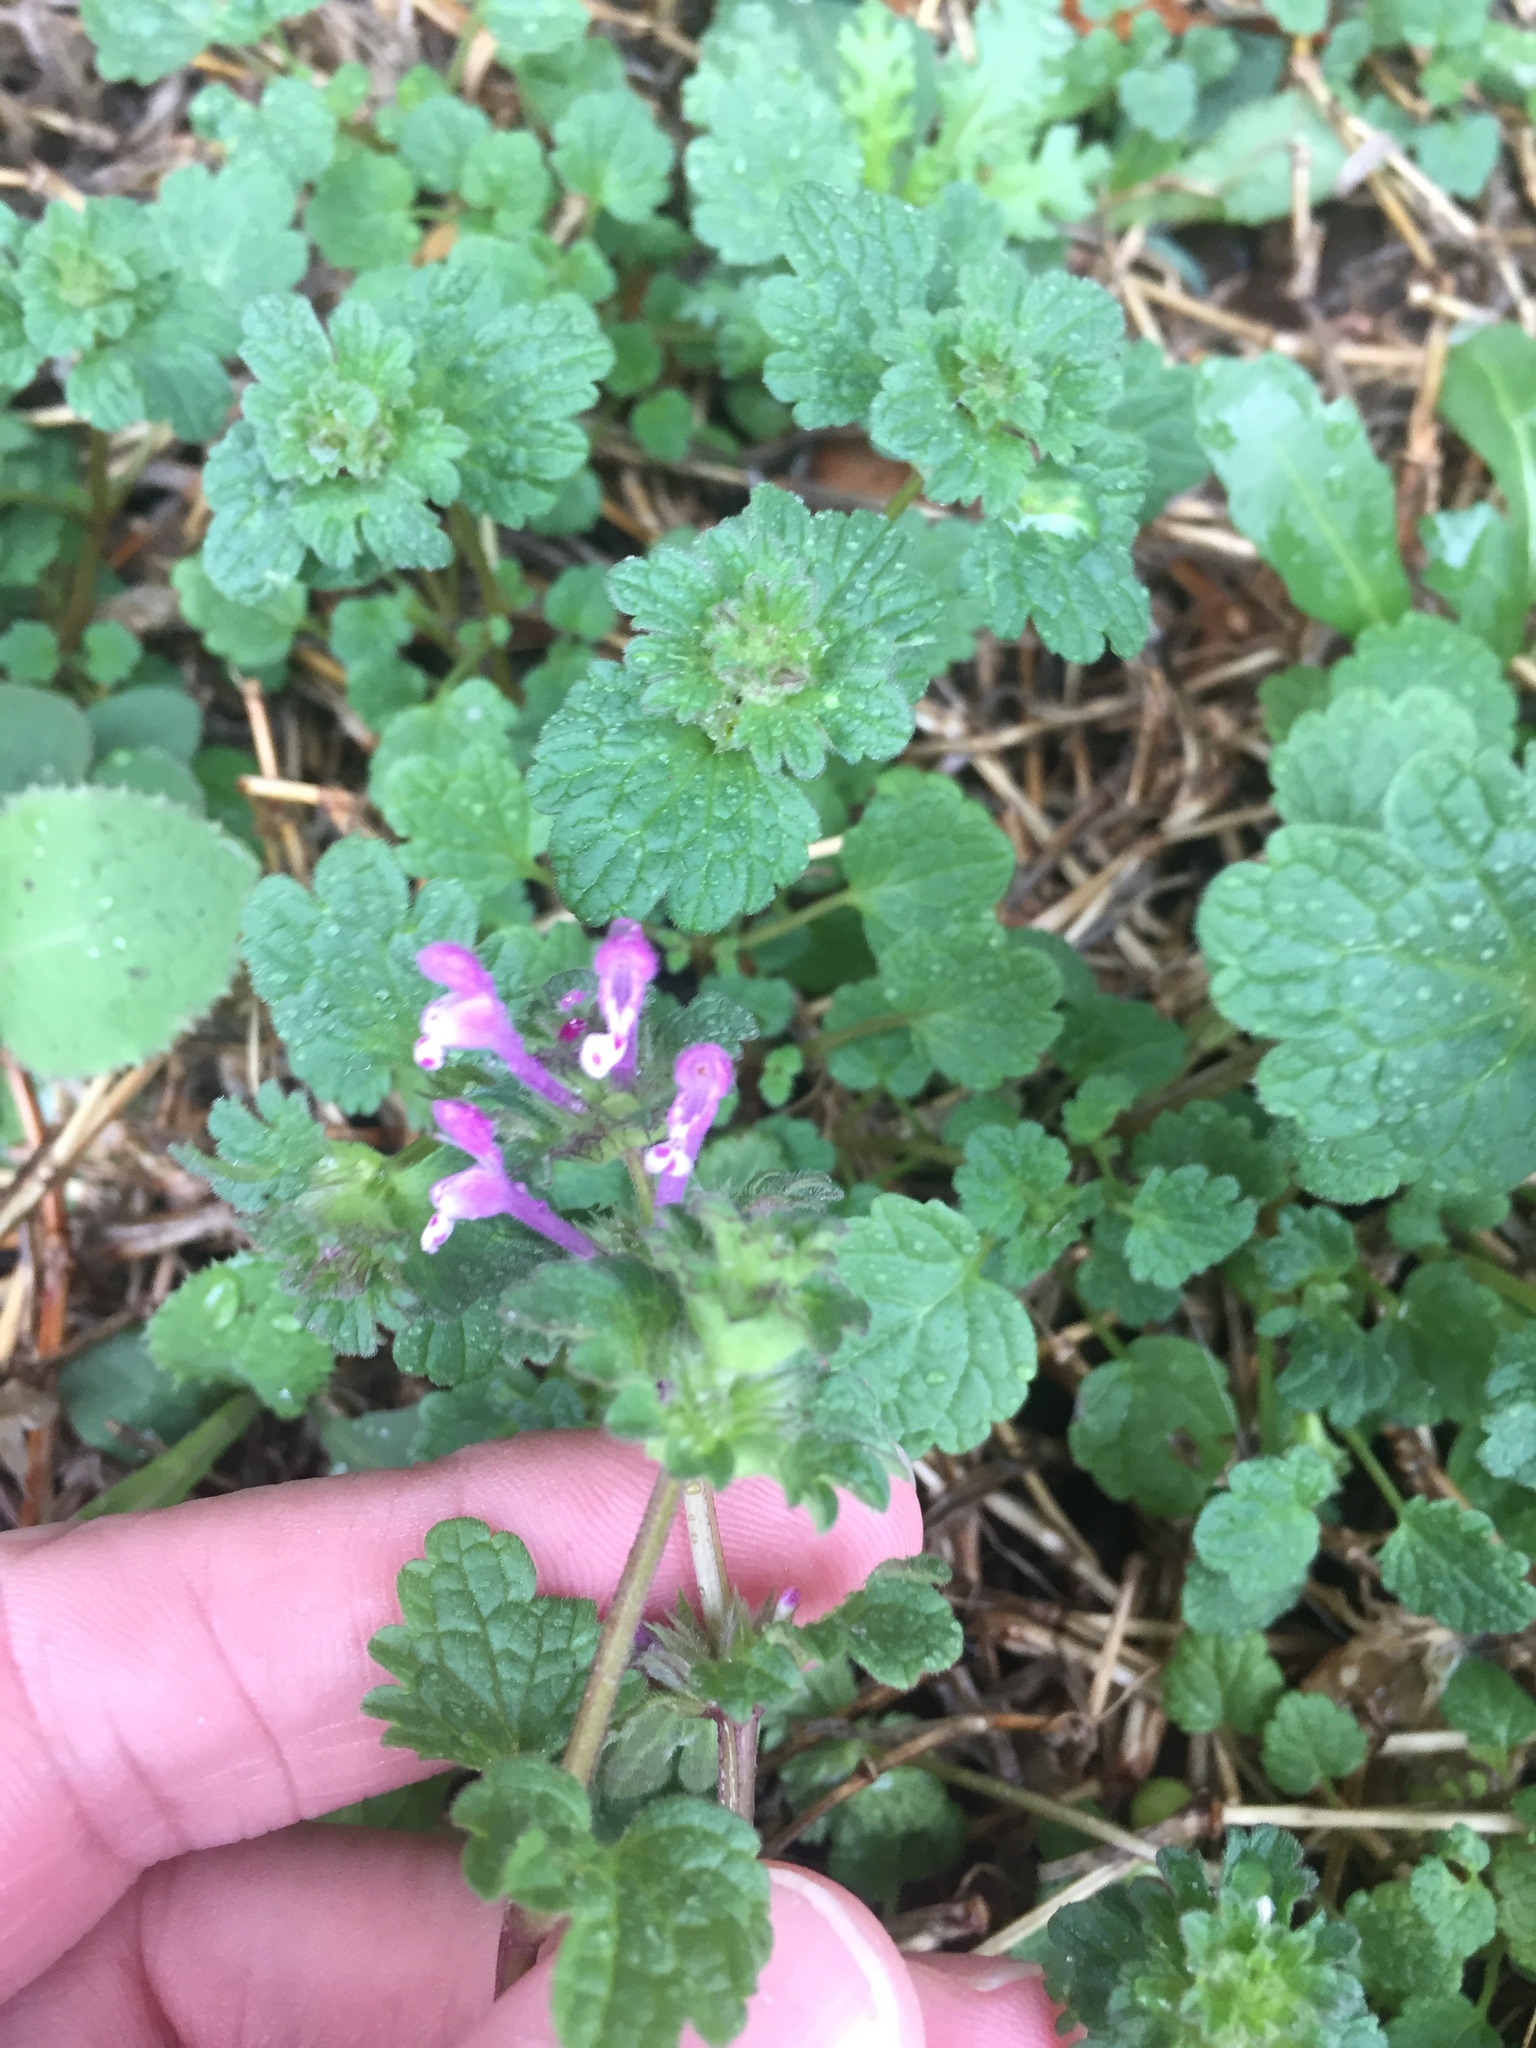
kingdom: Plantae
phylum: Tracheophyta
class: Magnoliopsida
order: Lamiales
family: Lamiaceae
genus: Lamium
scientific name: Lamium amplexicaule
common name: Henbit dead-nettle
